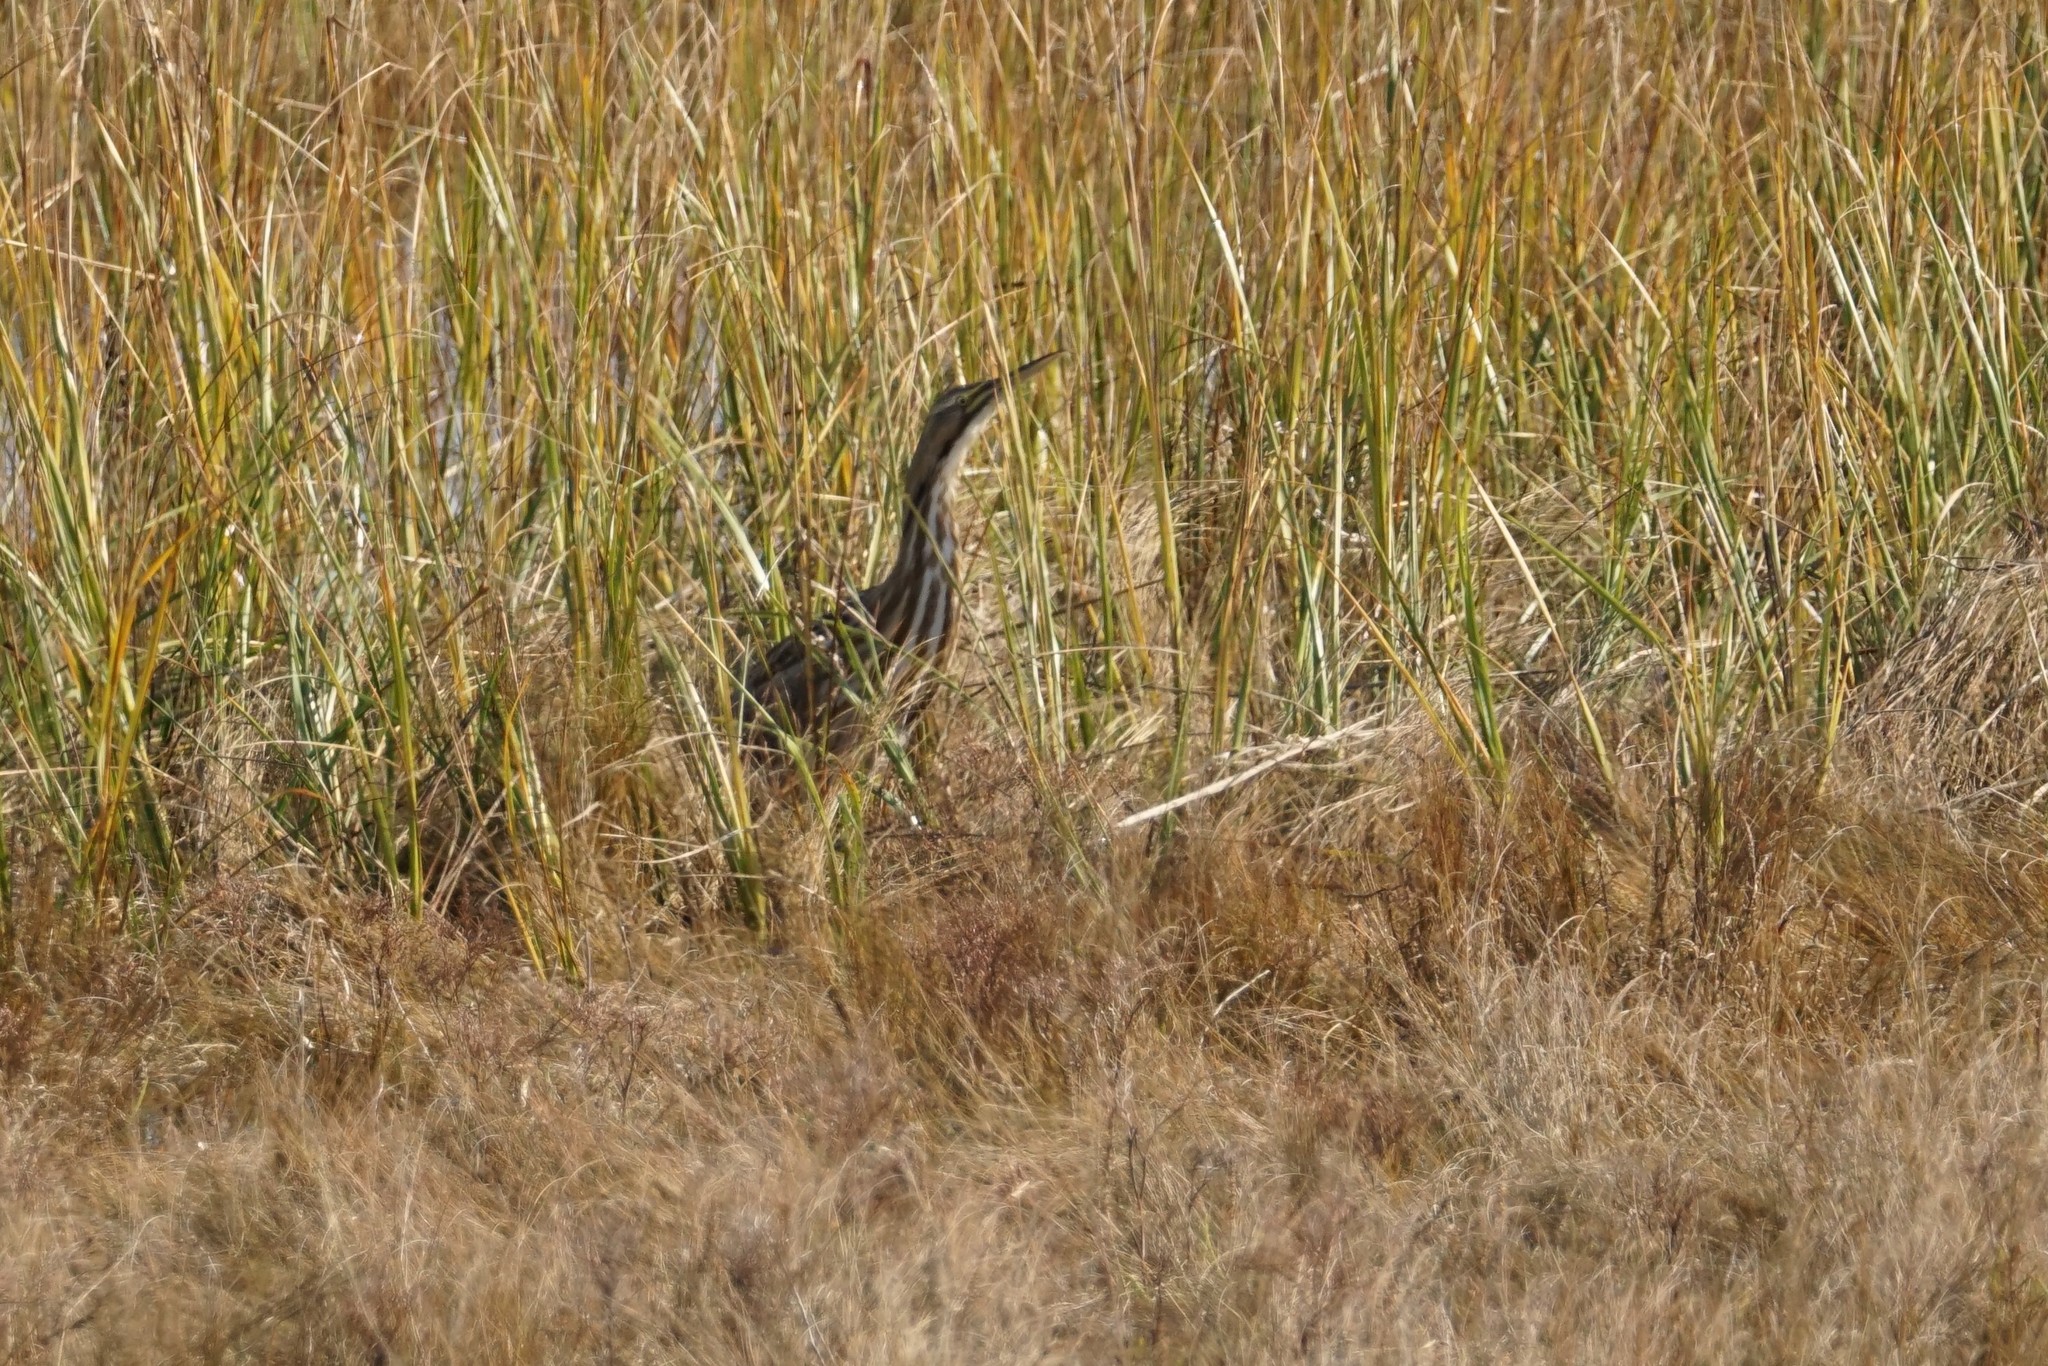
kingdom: Animalia
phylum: Chordata
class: Aves
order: Pelecaniformes
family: Ardeidae
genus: Botaurus
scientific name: Botaurus lentiginosus
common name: American bittern
